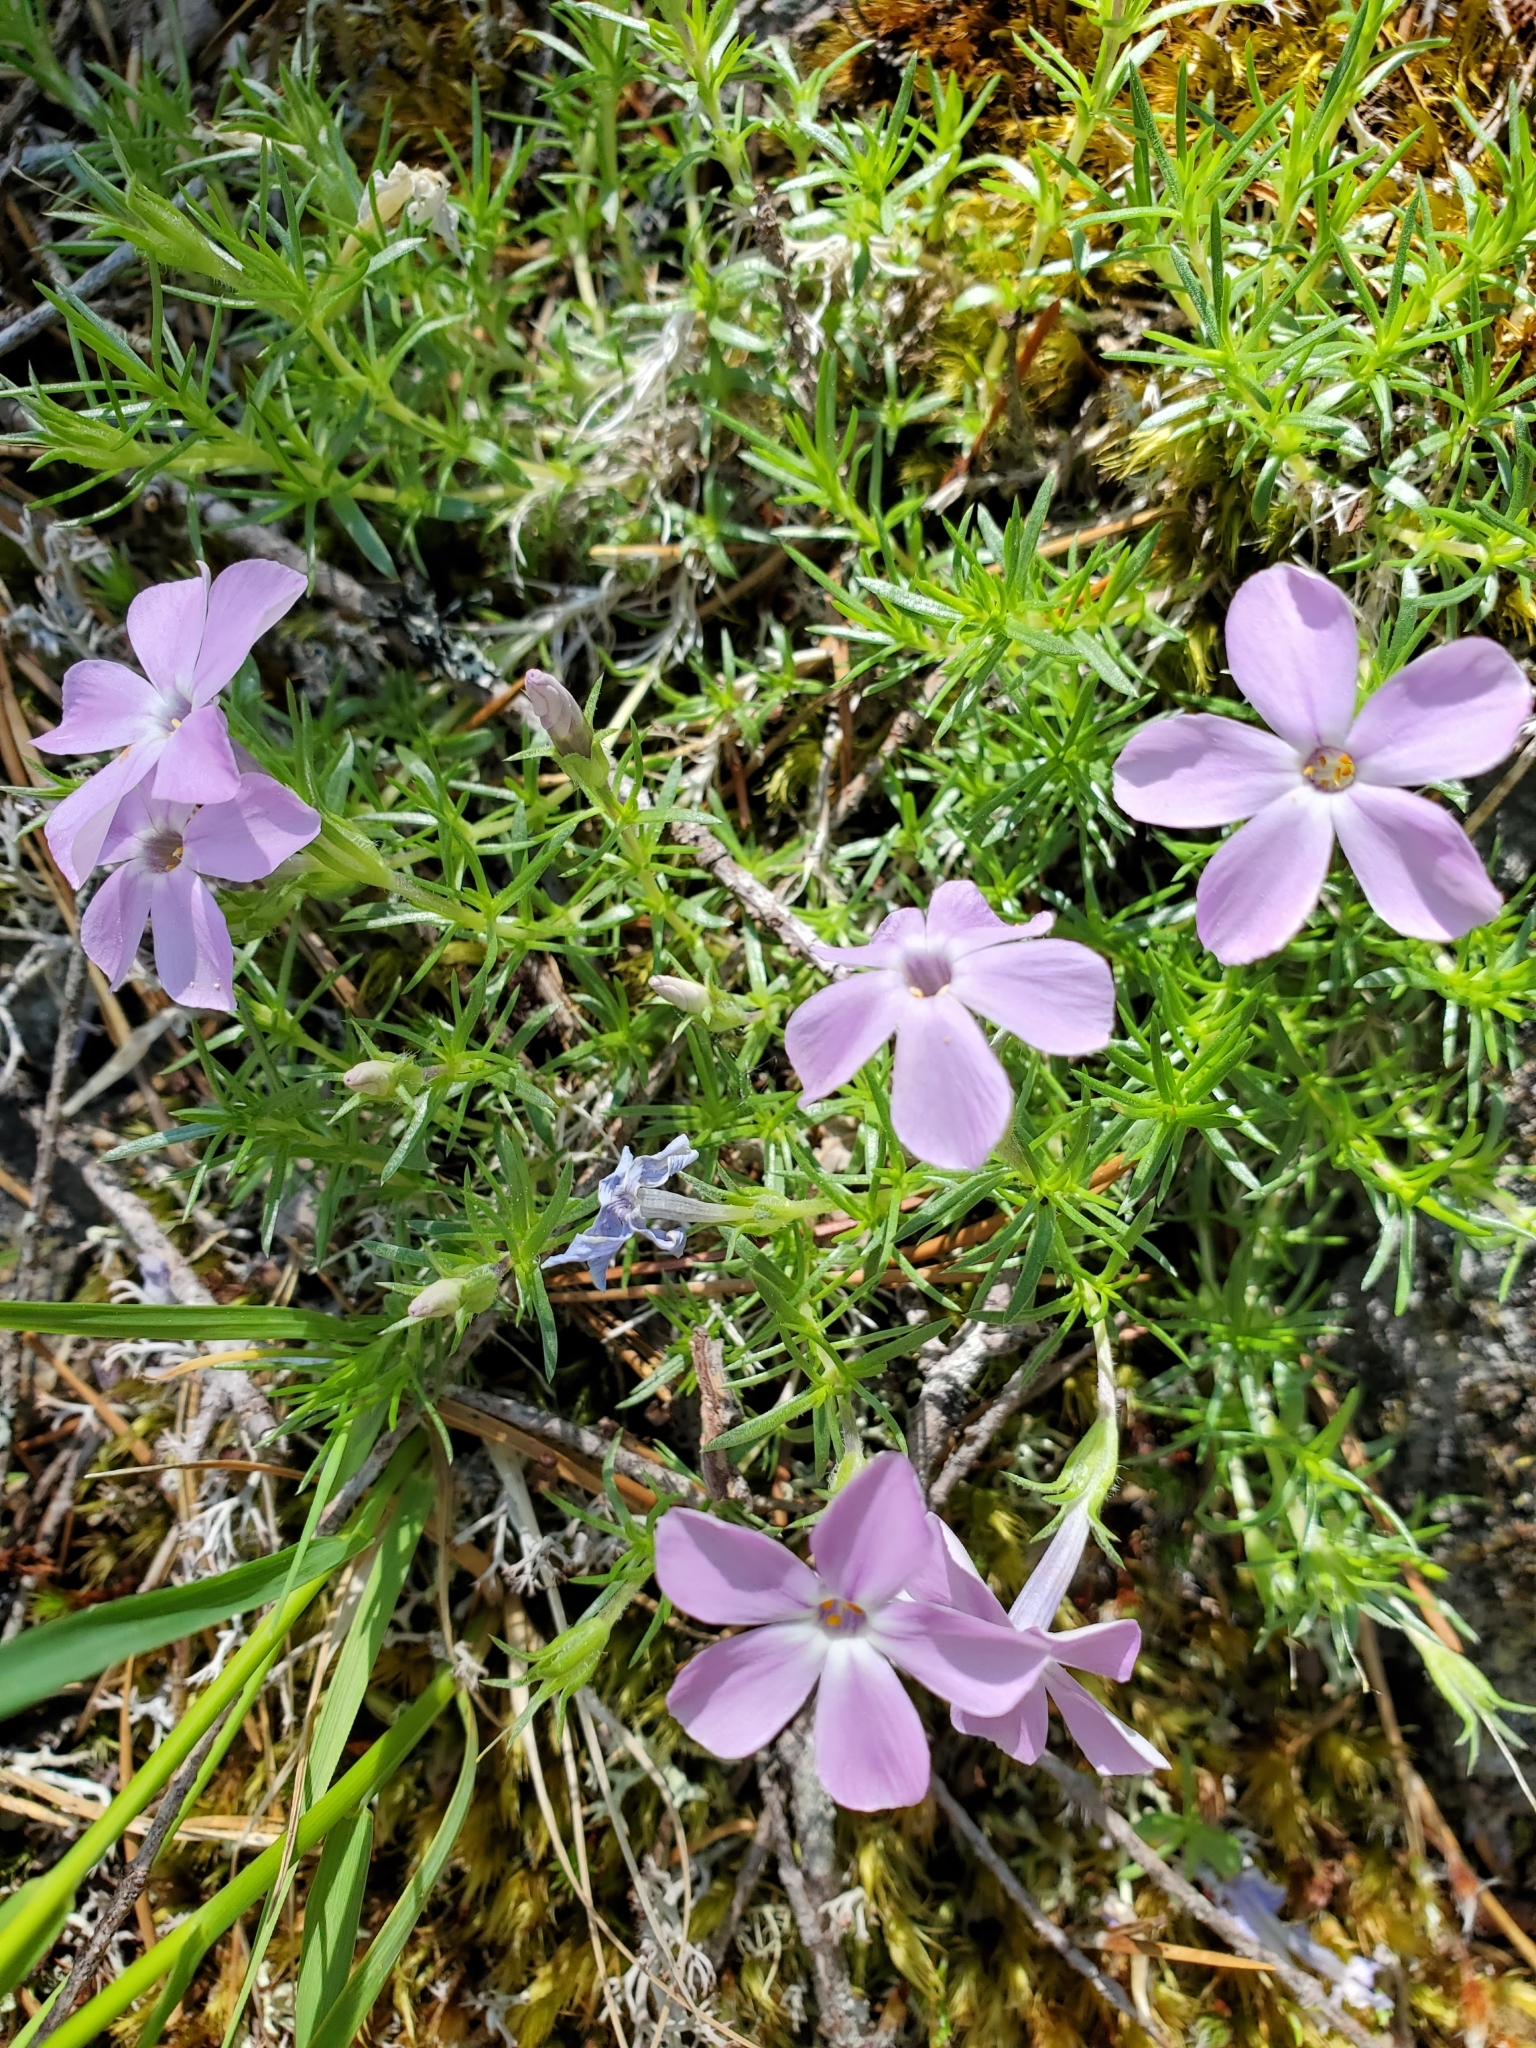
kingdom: Plantae
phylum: Tracheophyta
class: Magnoliopsida
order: Ericales
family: Polemoniaceae
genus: Phlox
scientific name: Phlox diffusa
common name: Mat phlox
